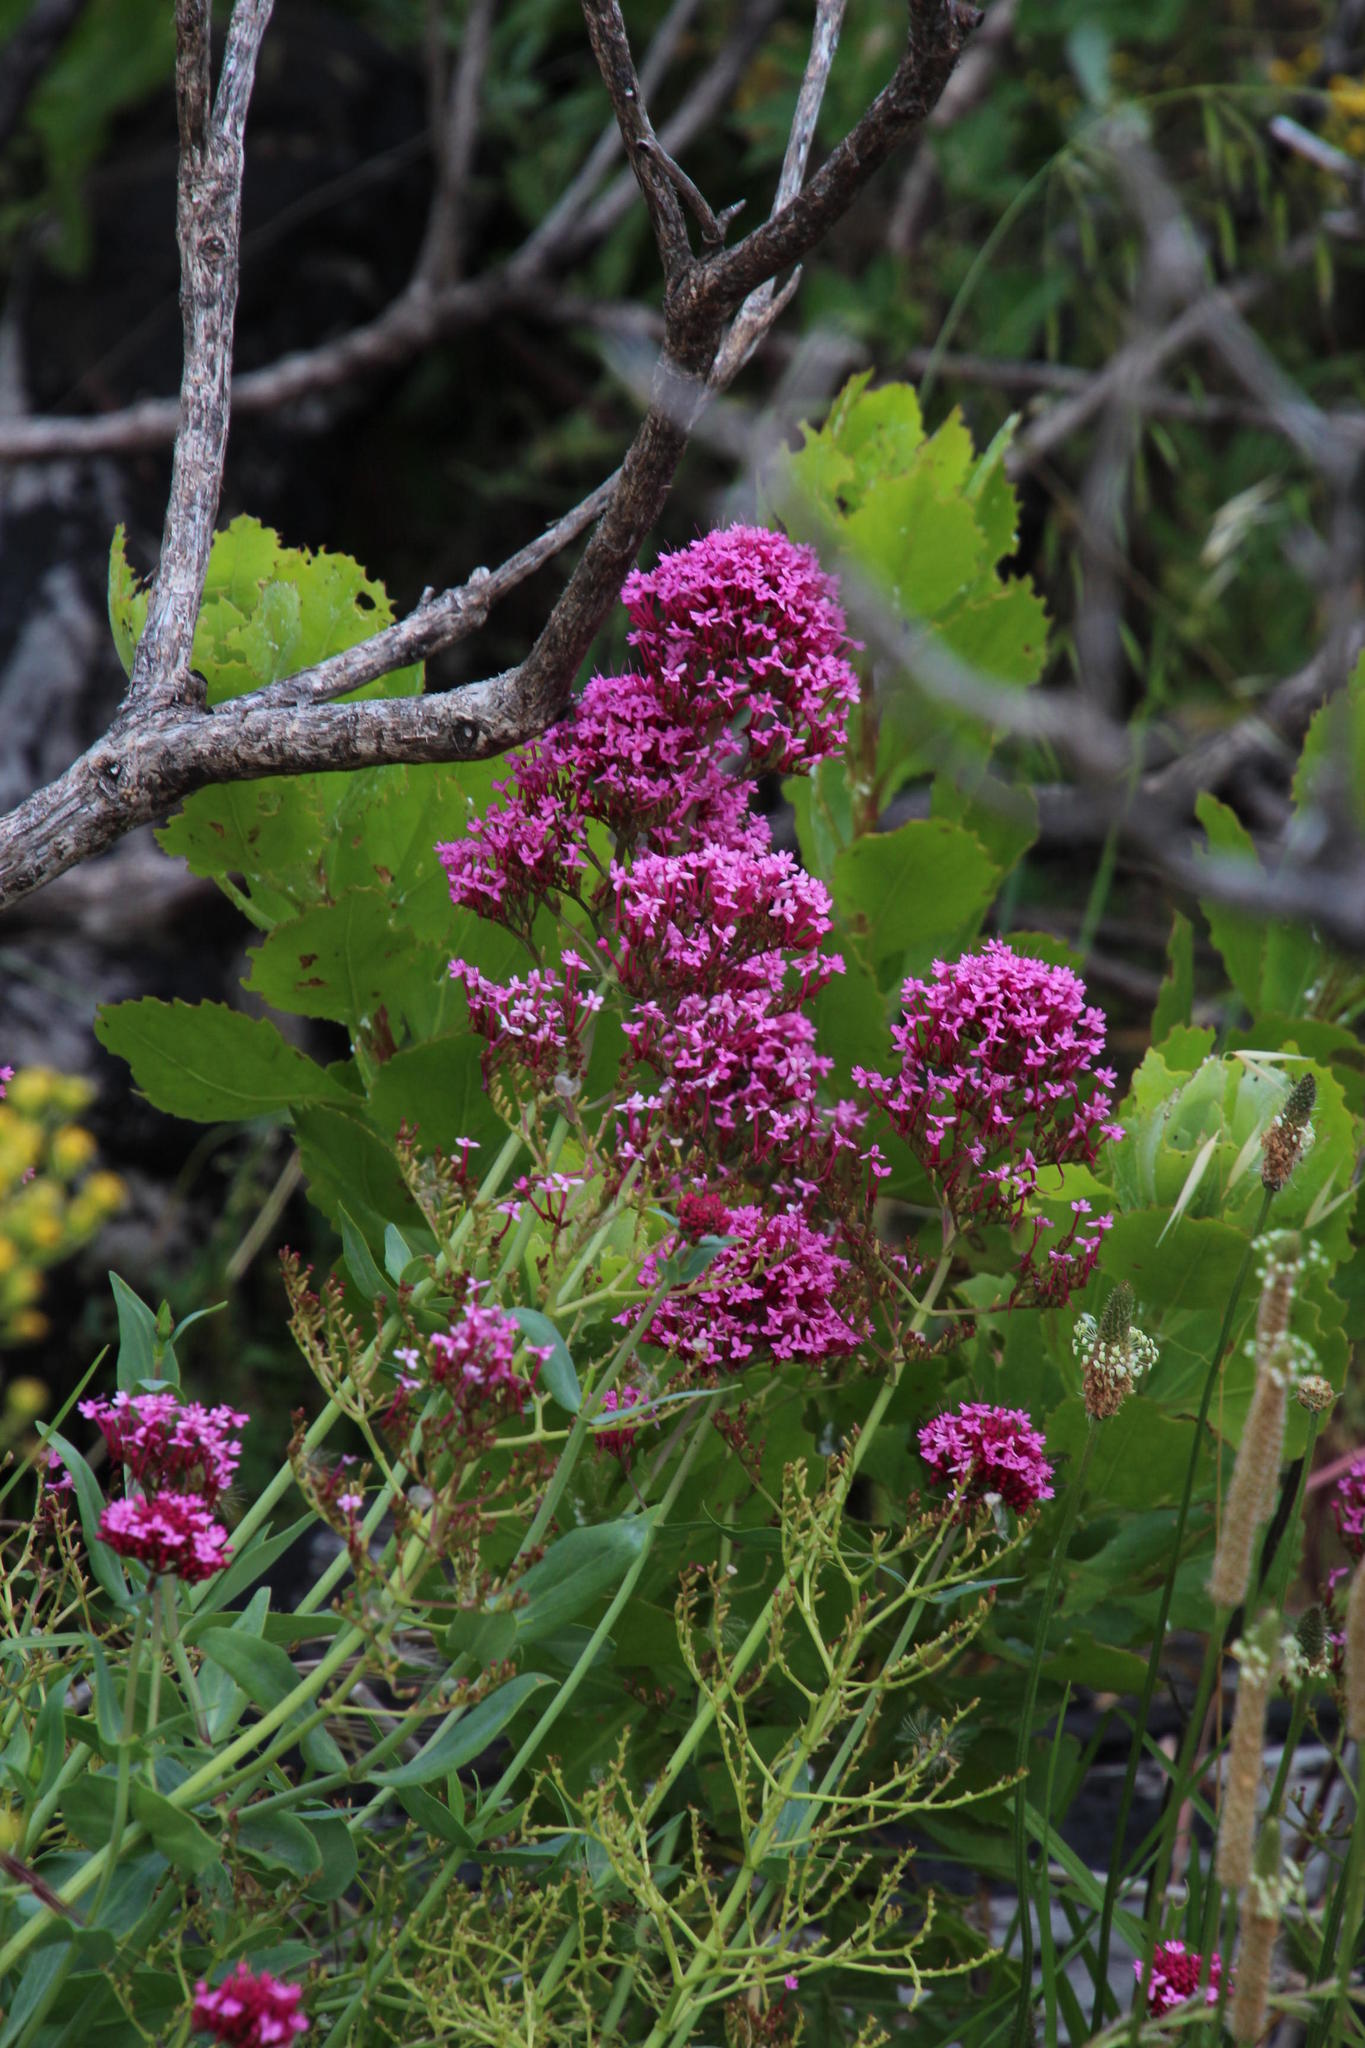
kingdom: Plantae
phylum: Tracheophyta
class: Magnoliopsida
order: Dipsacales
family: Caprifoliaceae
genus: Centranthus
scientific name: Centranthus ruber
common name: Red valerian
